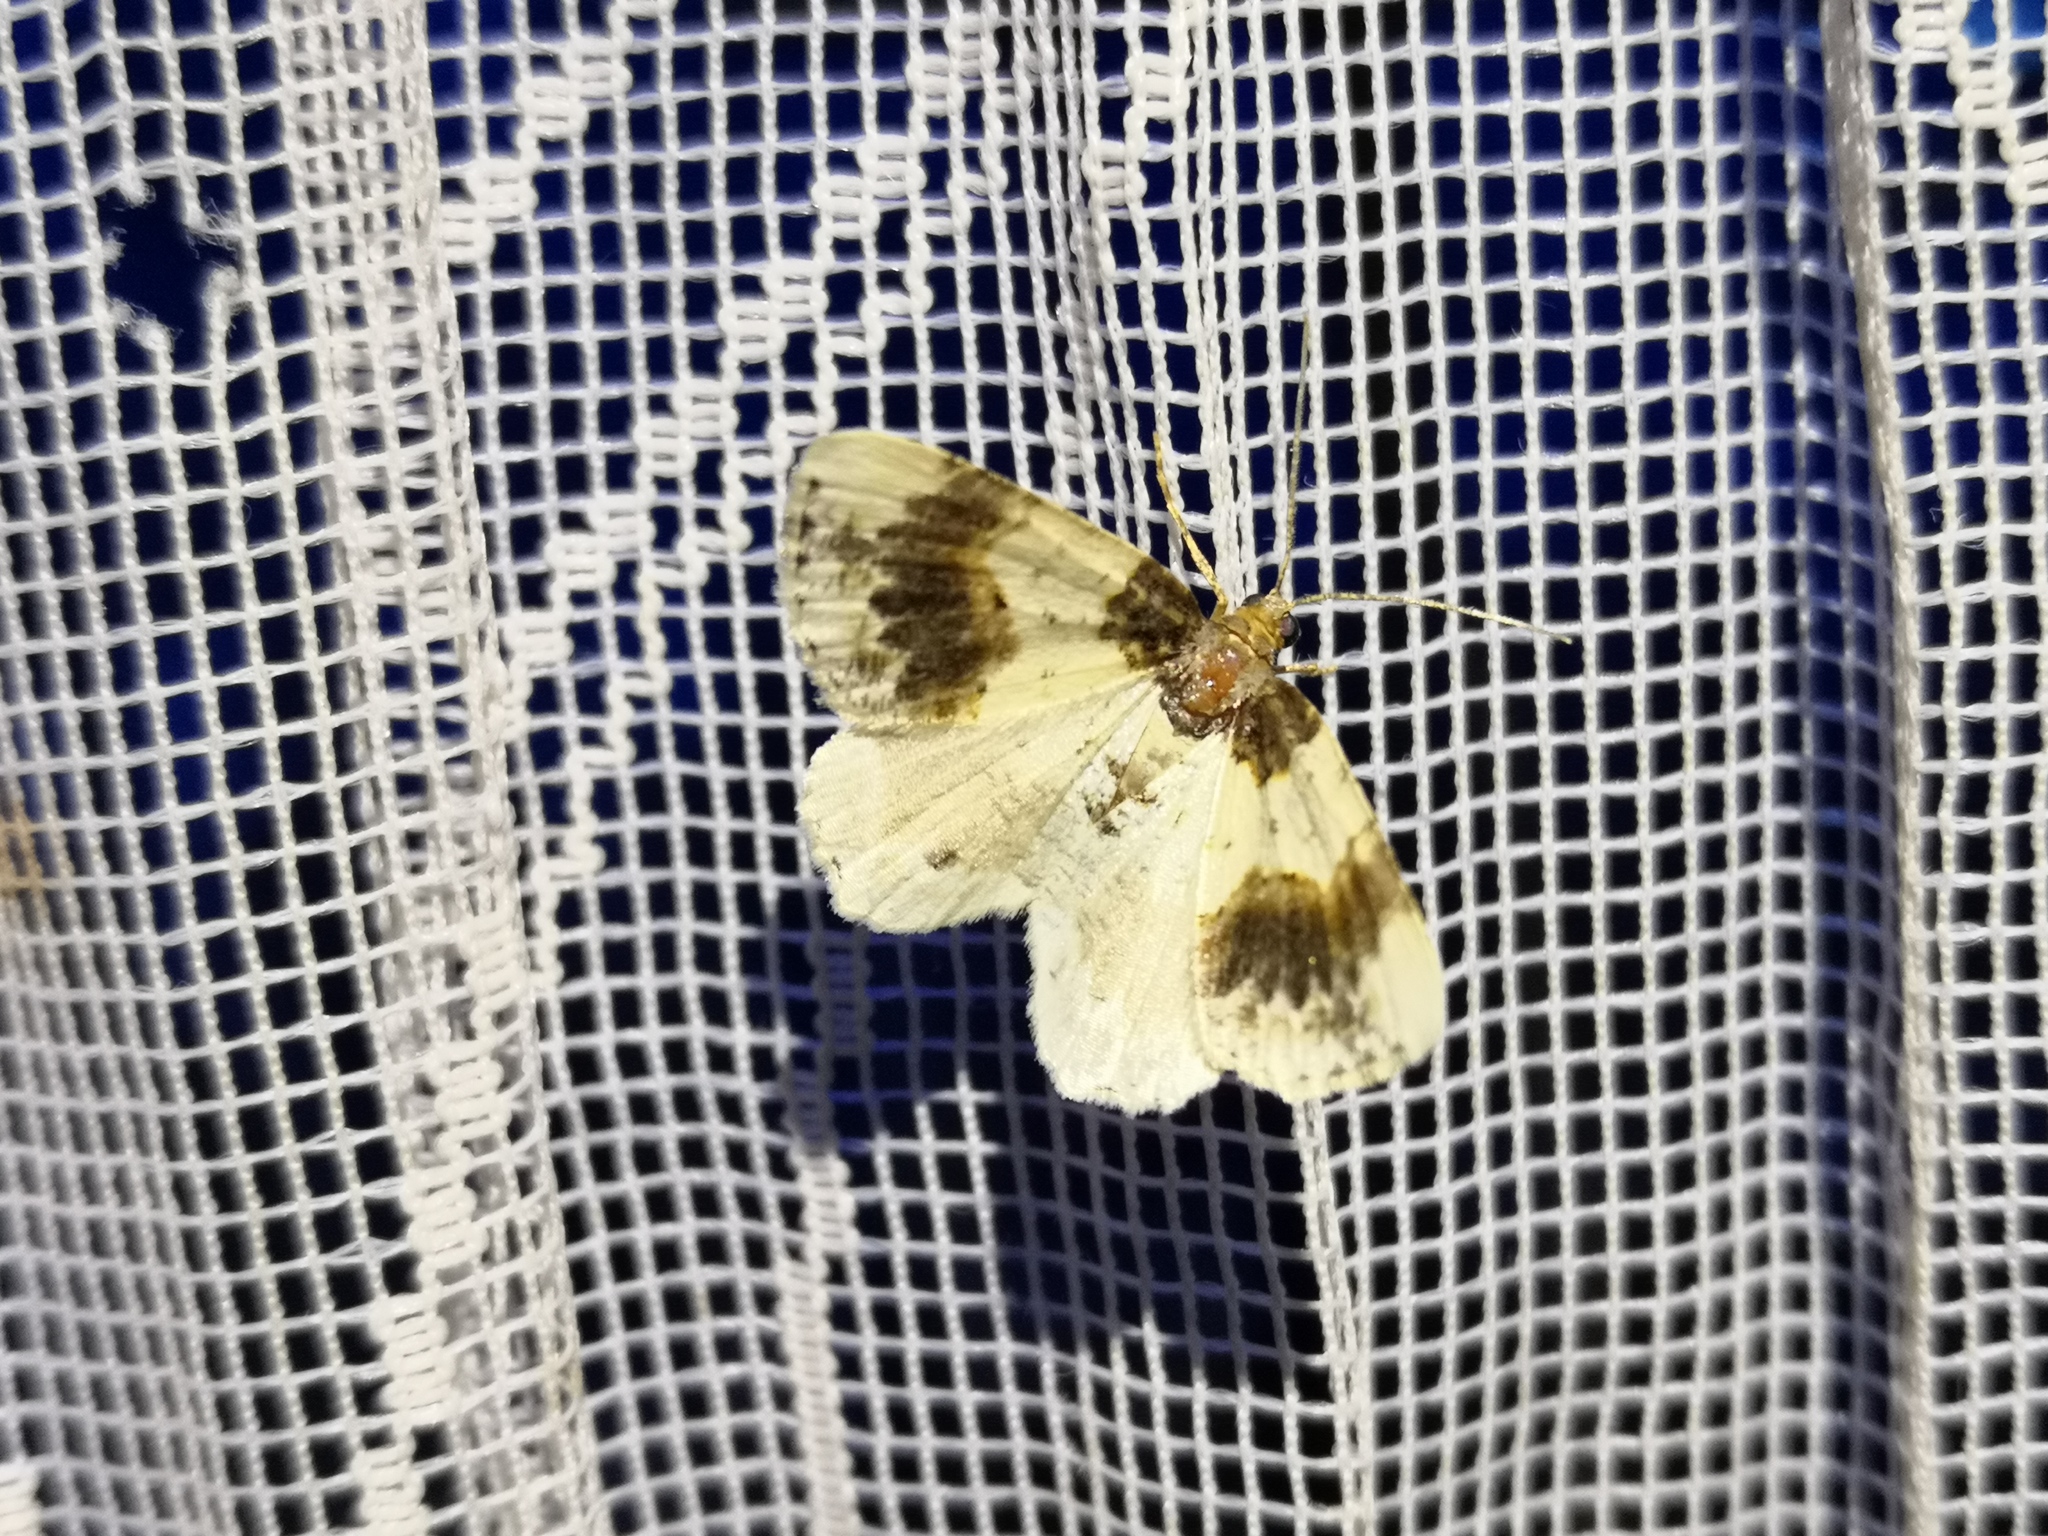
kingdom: Animalia
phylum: Arthropoda
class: Insecta
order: Lepidoptera
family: Geometridae
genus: Ligdia
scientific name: Ligdia adustata
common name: Scorched carpet
